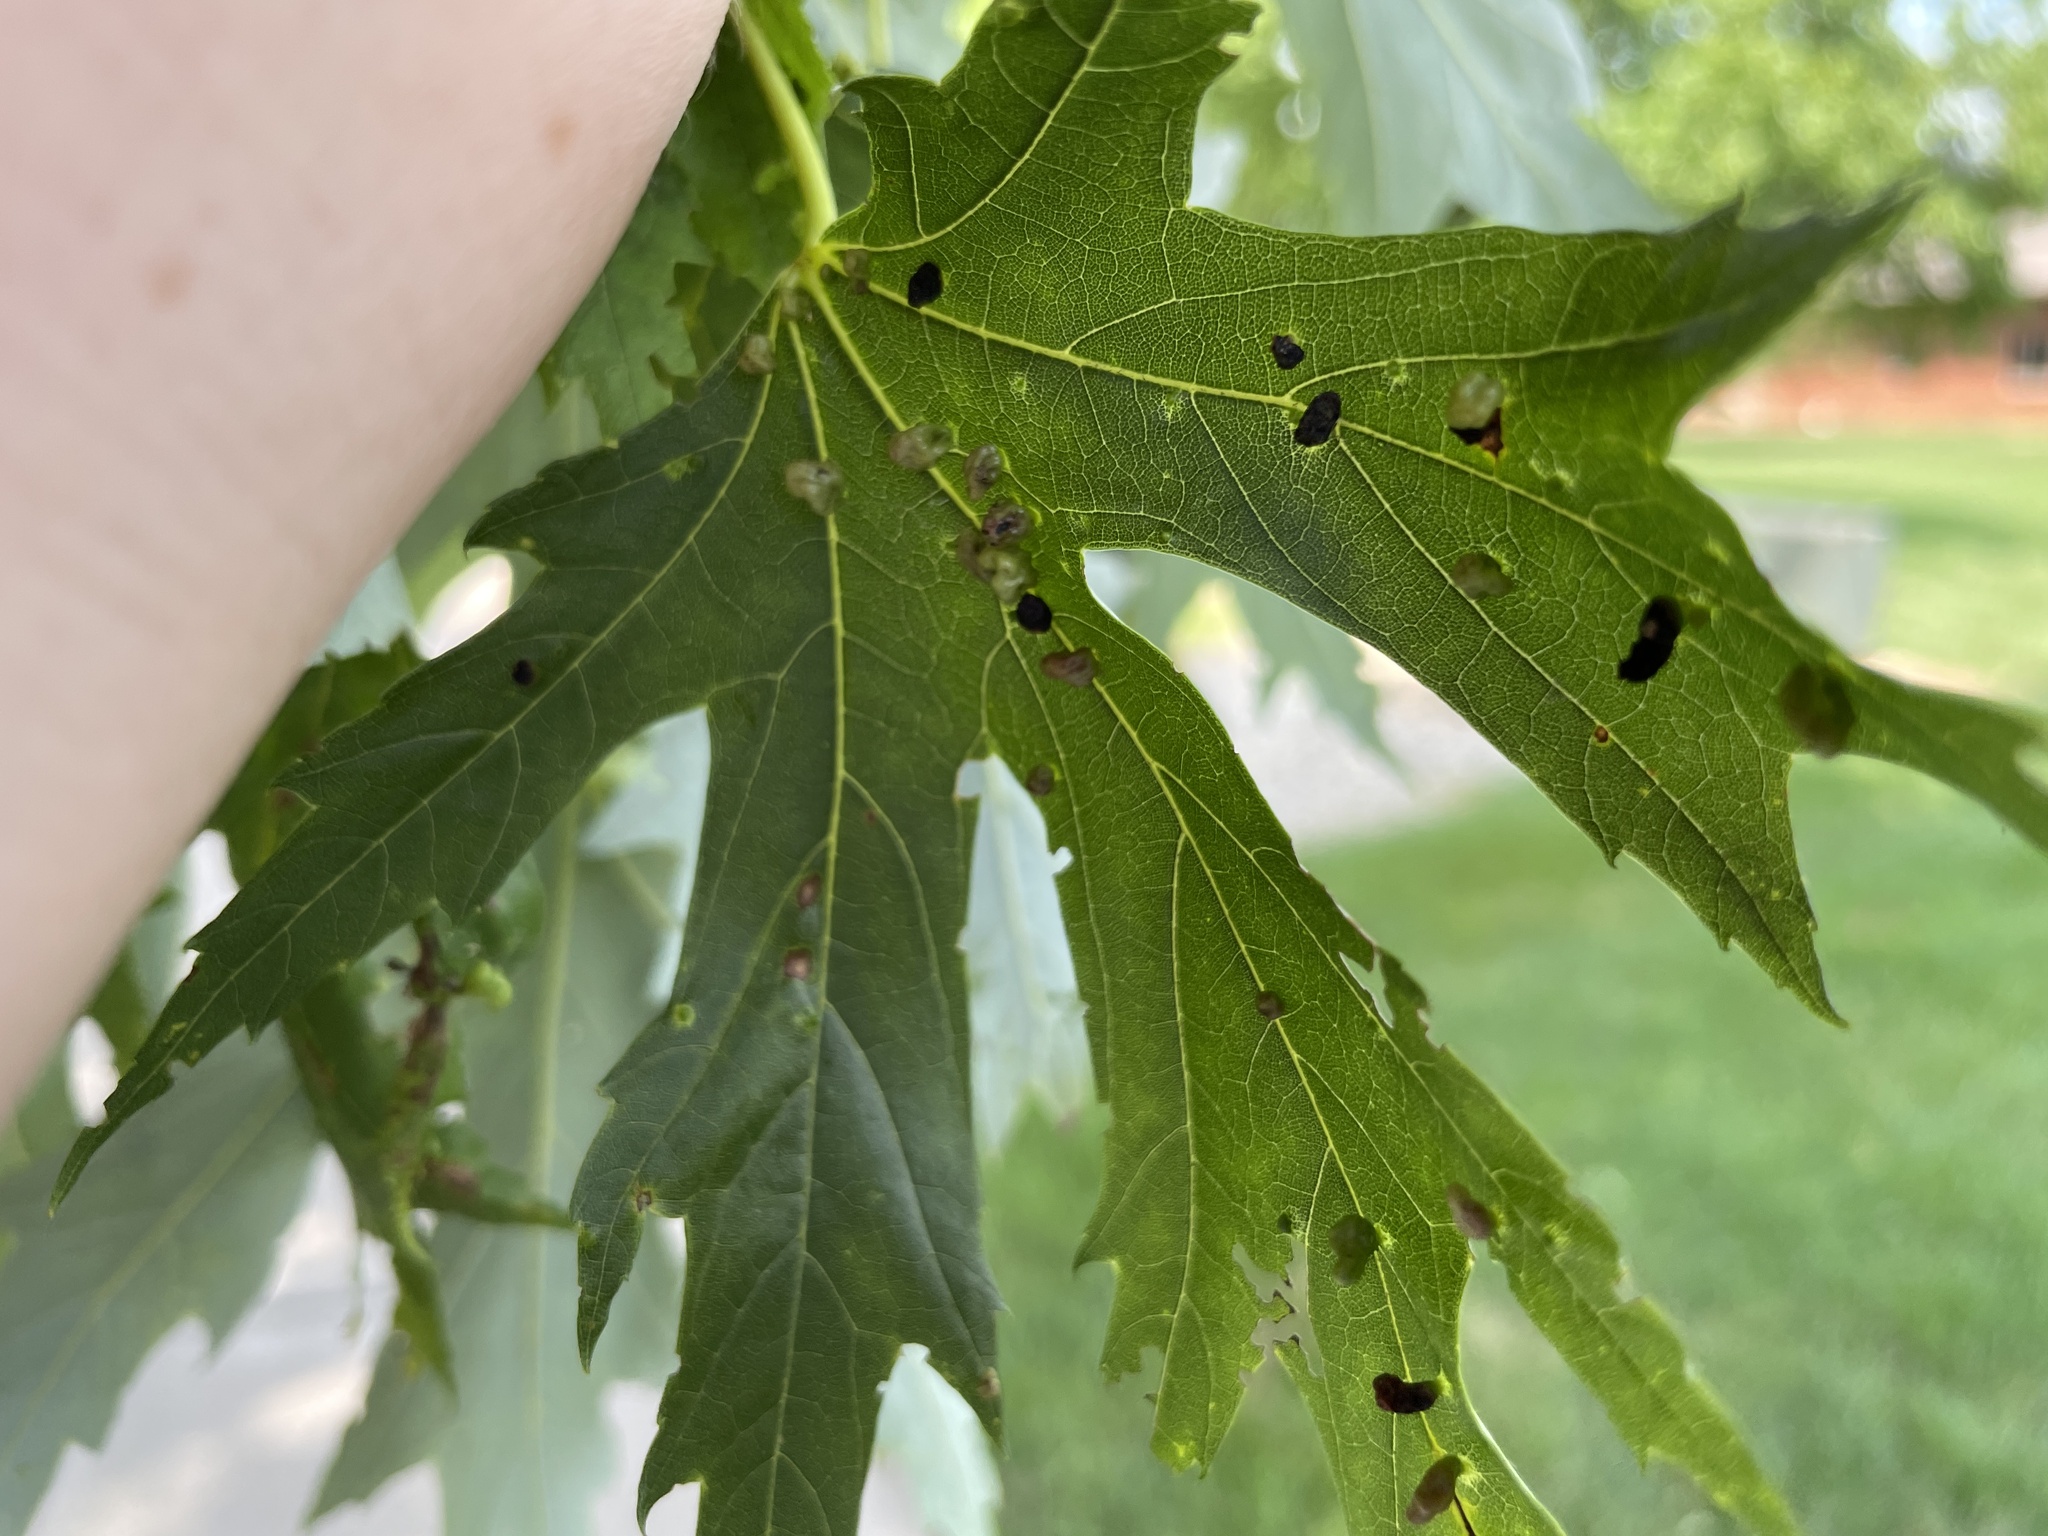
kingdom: Animalia
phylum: Arthropoda
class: Arachnida
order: Trombidiformes
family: Eriophyidae
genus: Vasates
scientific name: Vasates quadripedes
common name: Maple bladder gall mite
